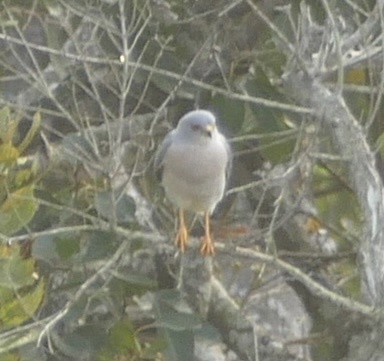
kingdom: Animalia
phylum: Chordata
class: Aves
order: Accipitriformes
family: Accipitridae
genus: Accipiter
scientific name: Accipiter badius
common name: Shikra
